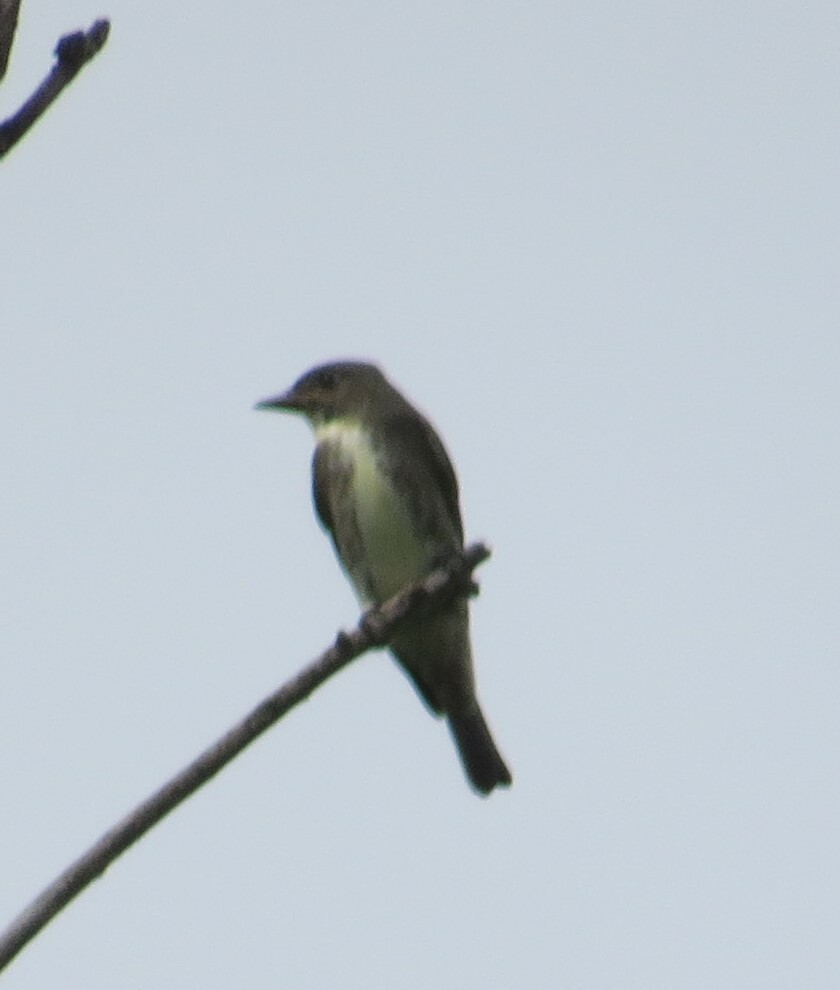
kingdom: Animalia
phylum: Chordata
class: Aves
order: Passeriformes
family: Tyrannidae
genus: Contopus
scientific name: Contopus cooperi
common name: Olive-sided flycatcher
